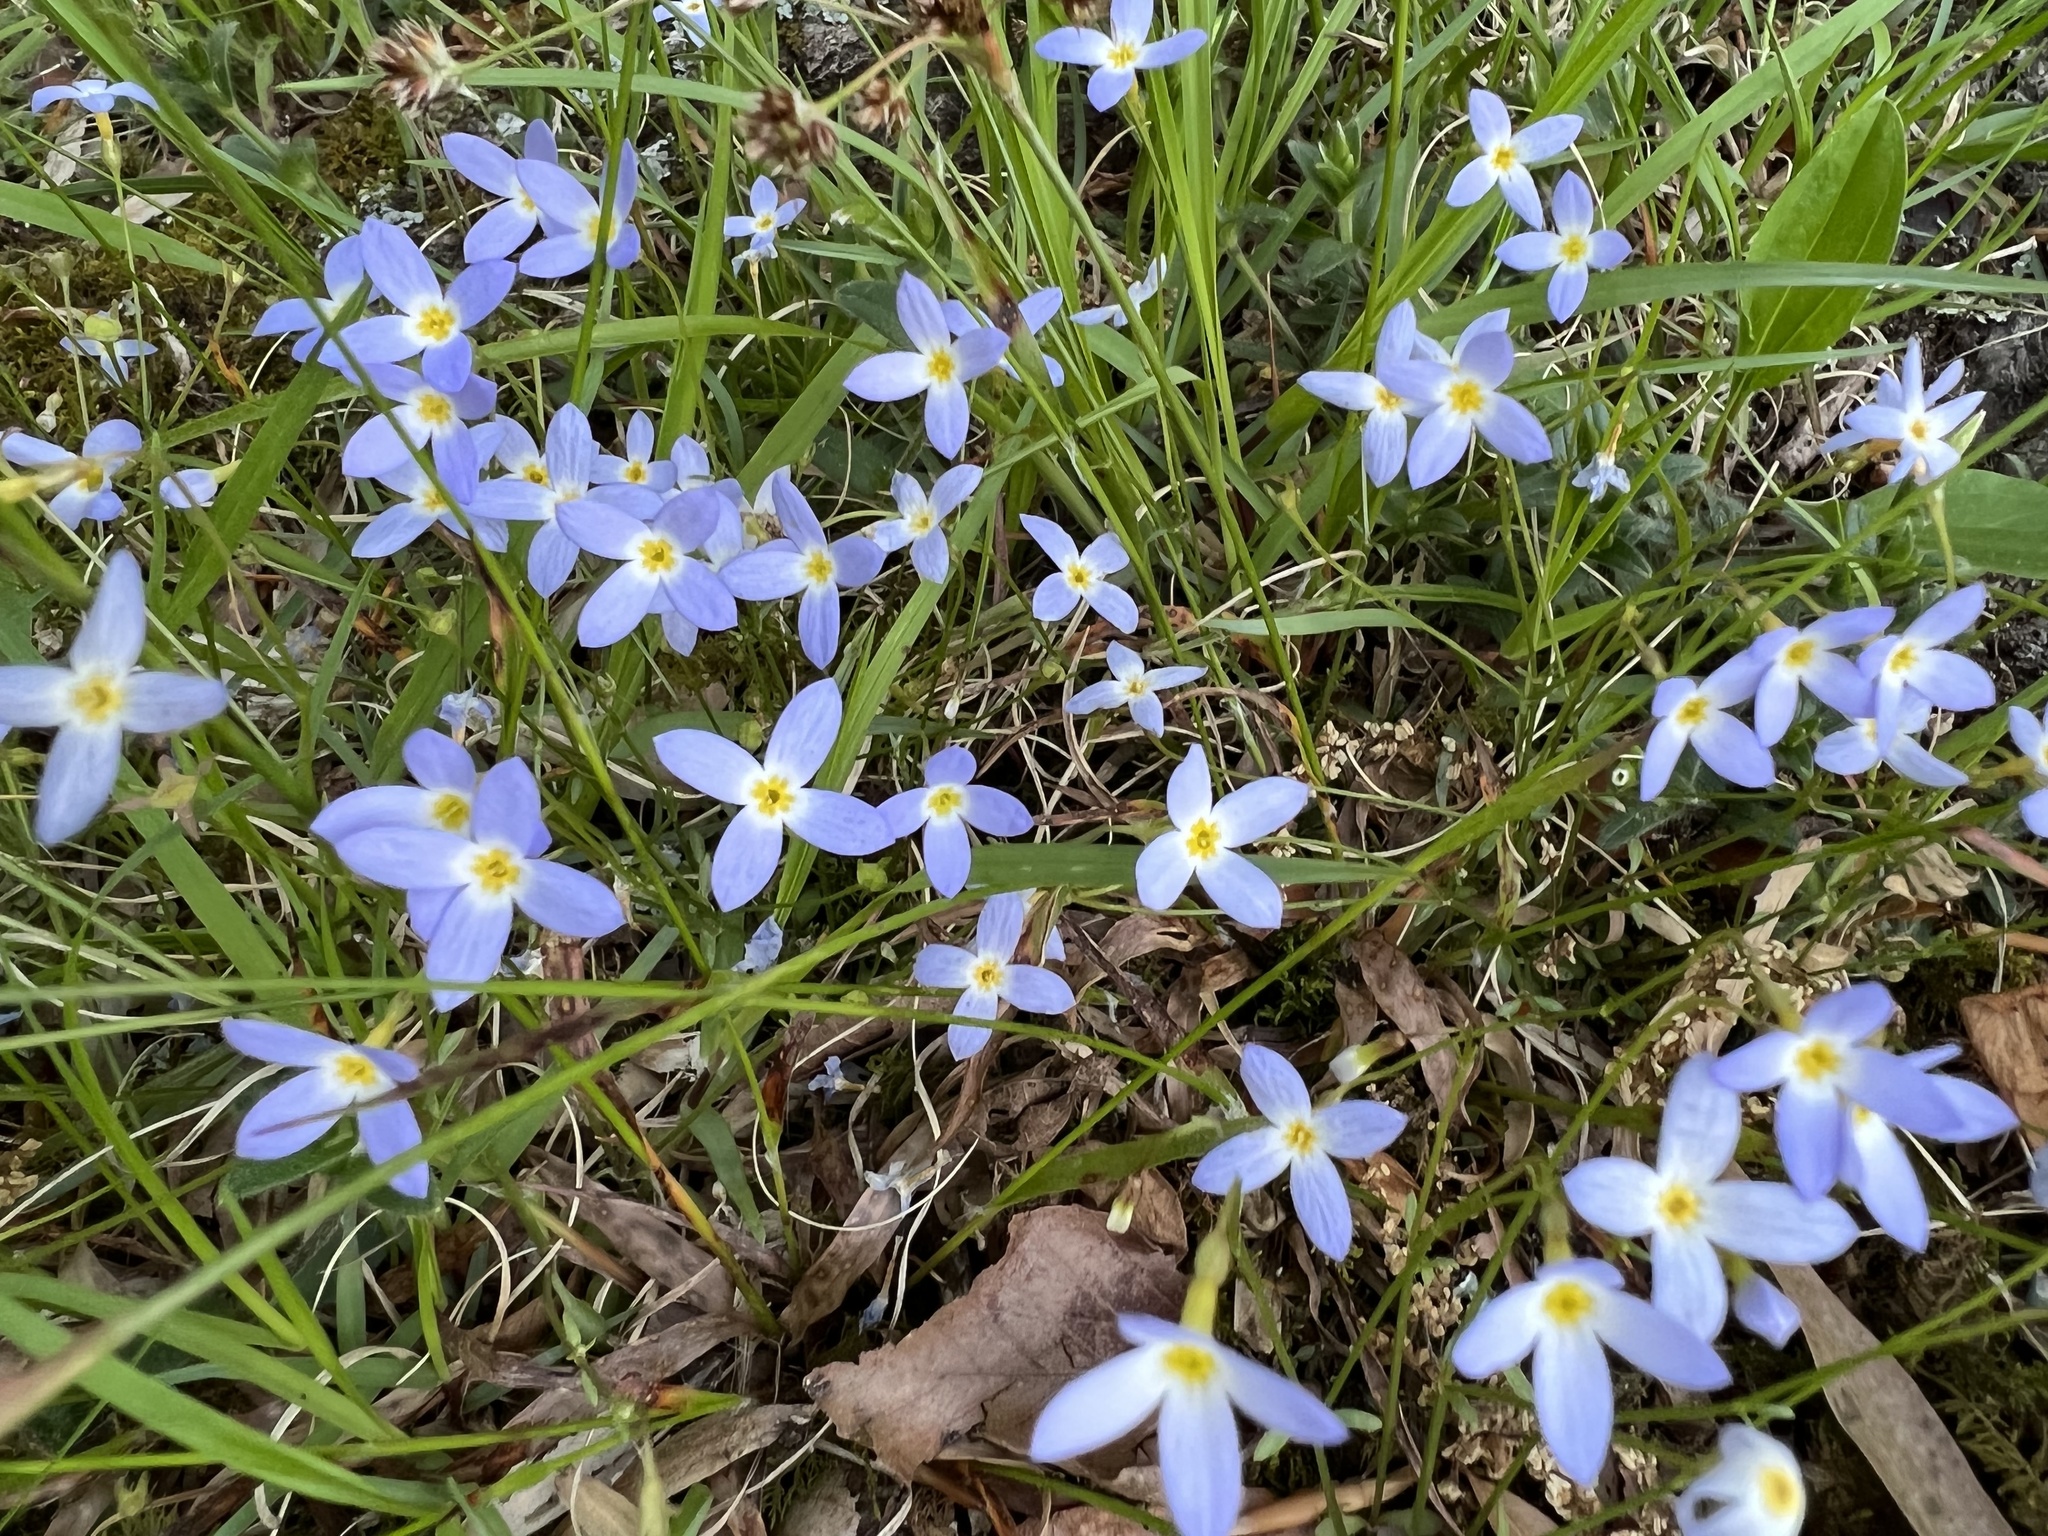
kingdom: Plantae
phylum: Tracheophyta
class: Magnoliopsida
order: Gentianales
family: Rubiaceae
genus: Houstonia
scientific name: Houstonia caerulea
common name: Bluets
